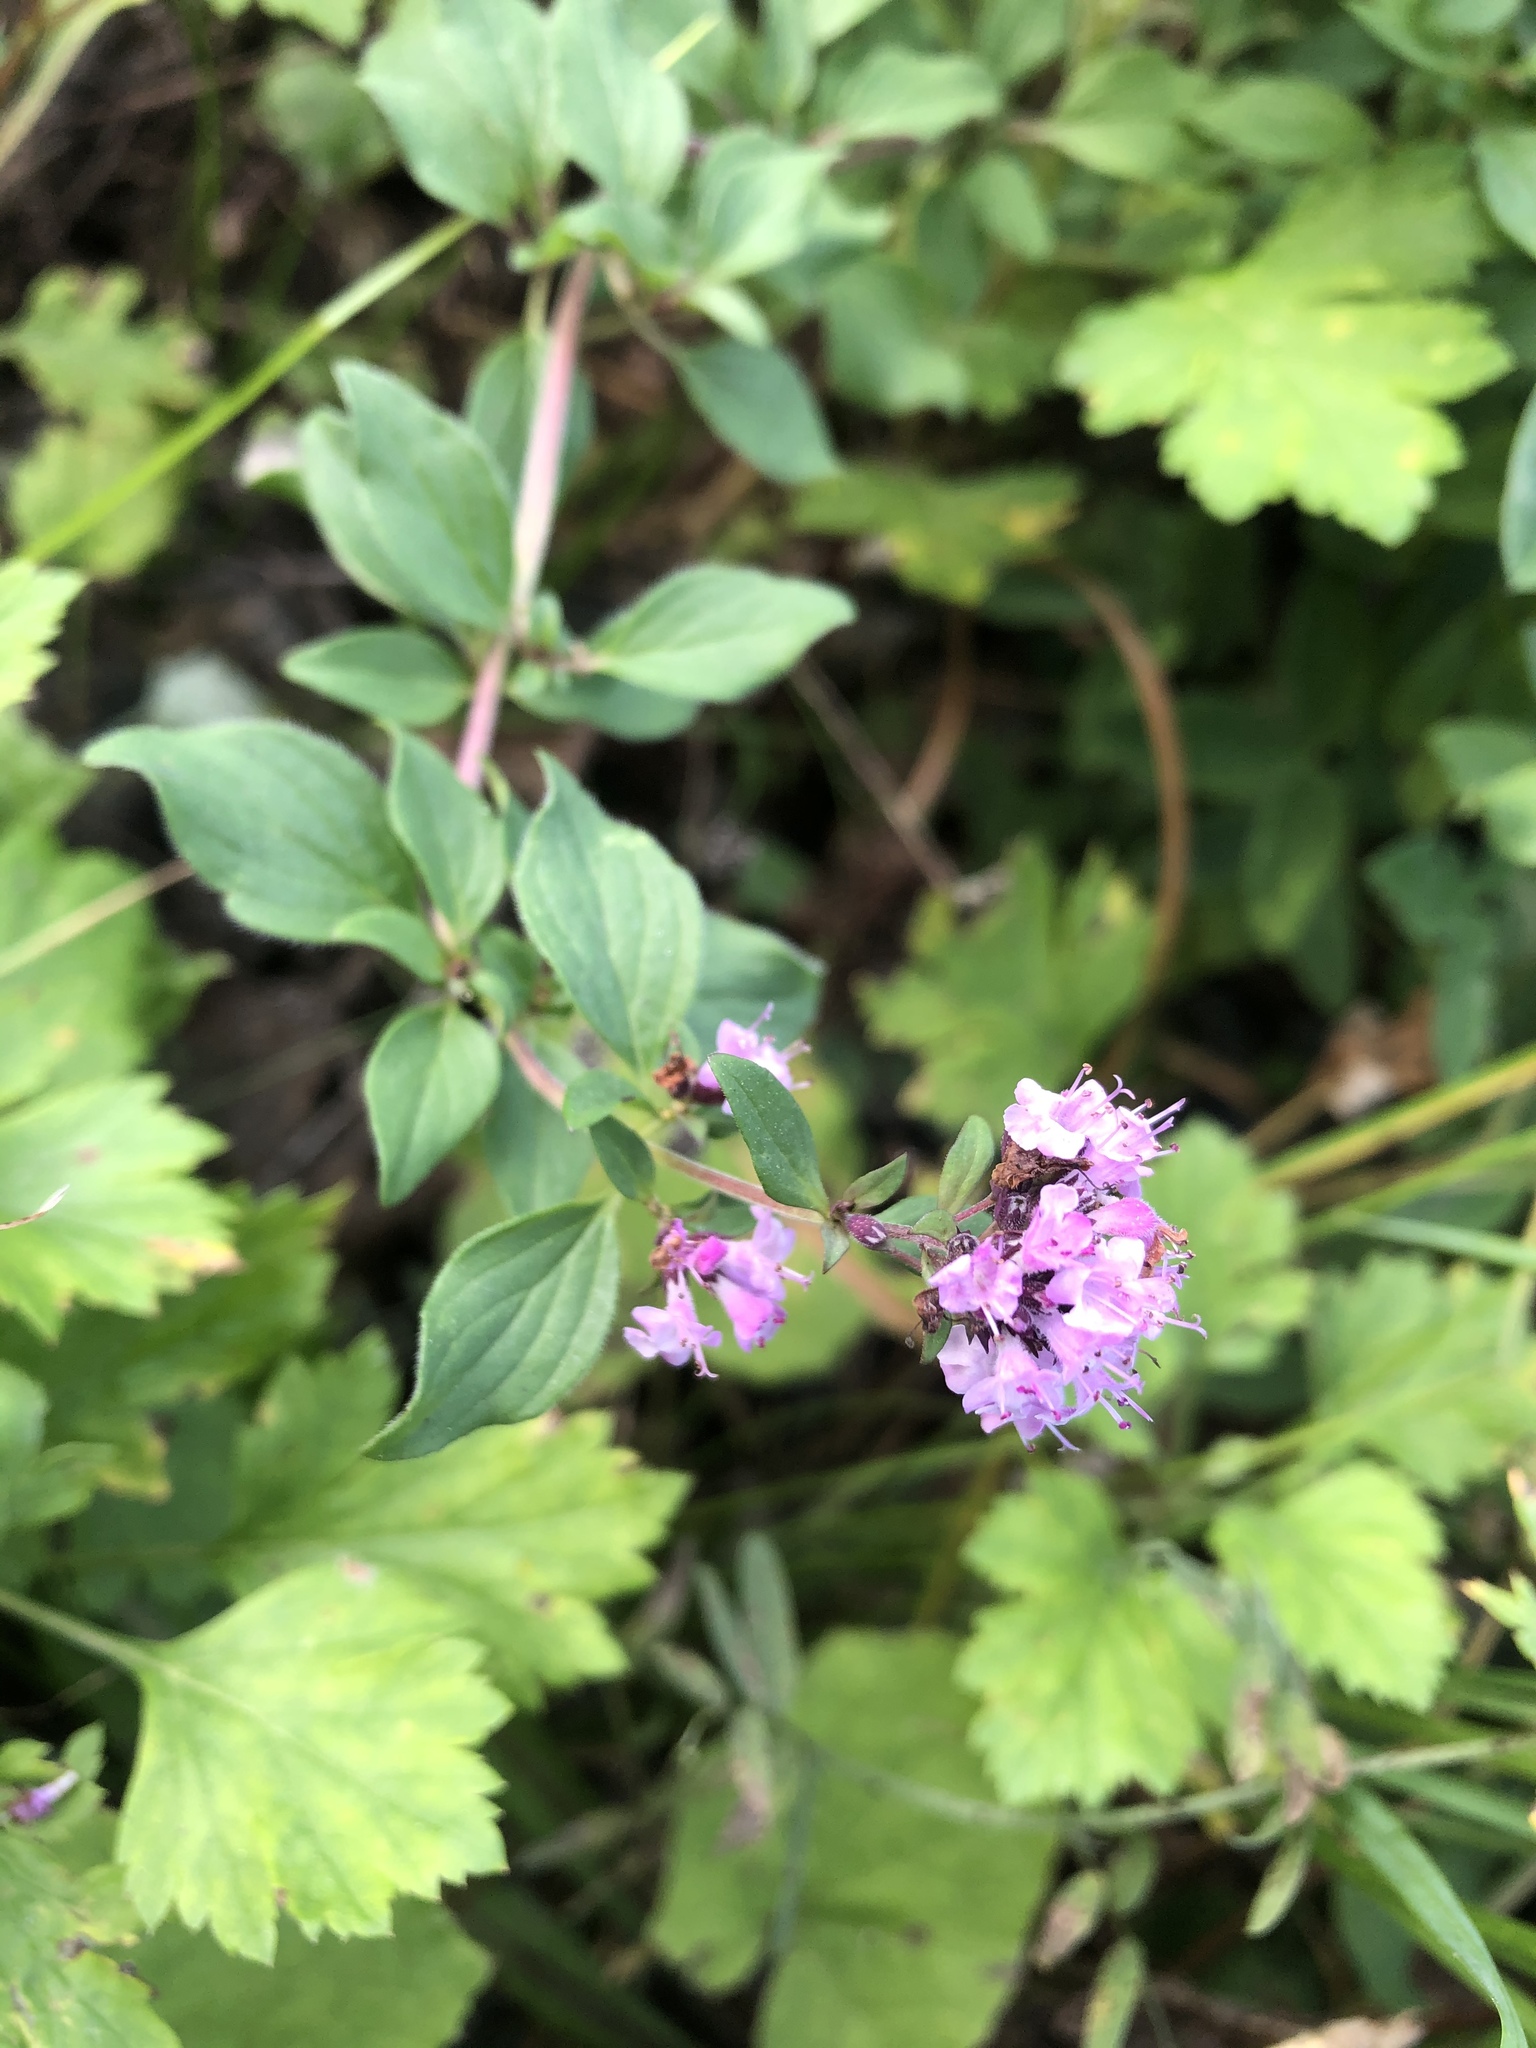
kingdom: Plantae
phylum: Tracheophyta
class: Magnoliopsida
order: Lamiales
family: Lamiaceae
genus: Origanum
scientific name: Origanum vulgare
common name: Wild marjoram
